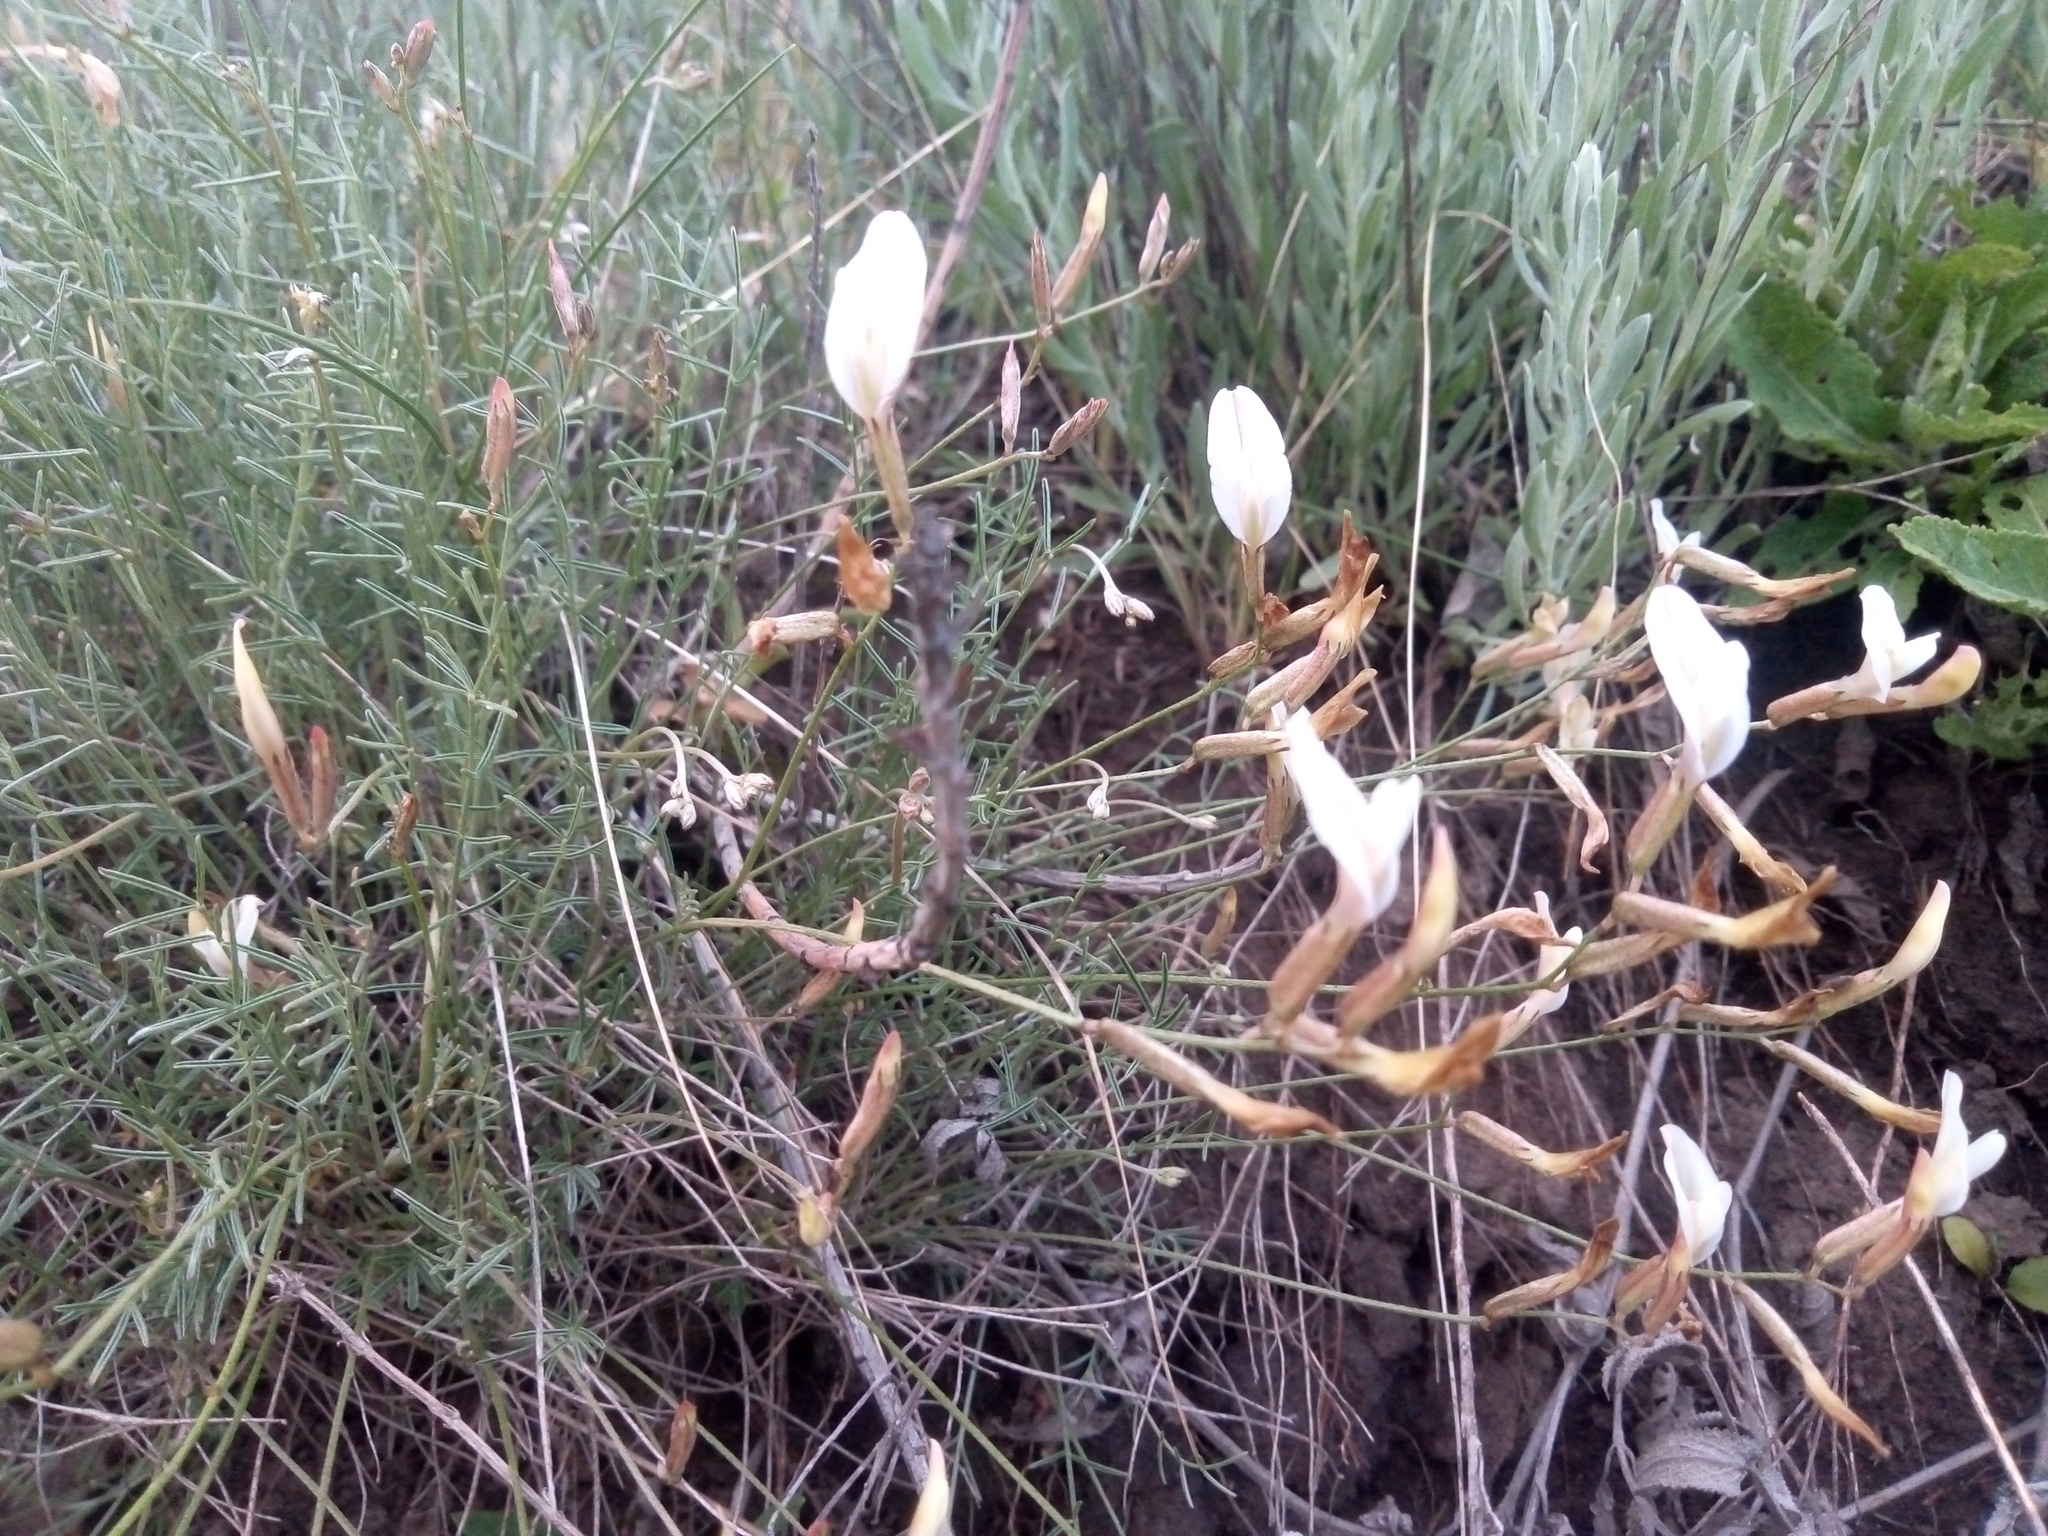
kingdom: Plantae
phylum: Tracheophyta
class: Magnoliopsida
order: Fabales
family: Fabaceae
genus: Astragalus
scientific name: Astragalus ucrainicus
